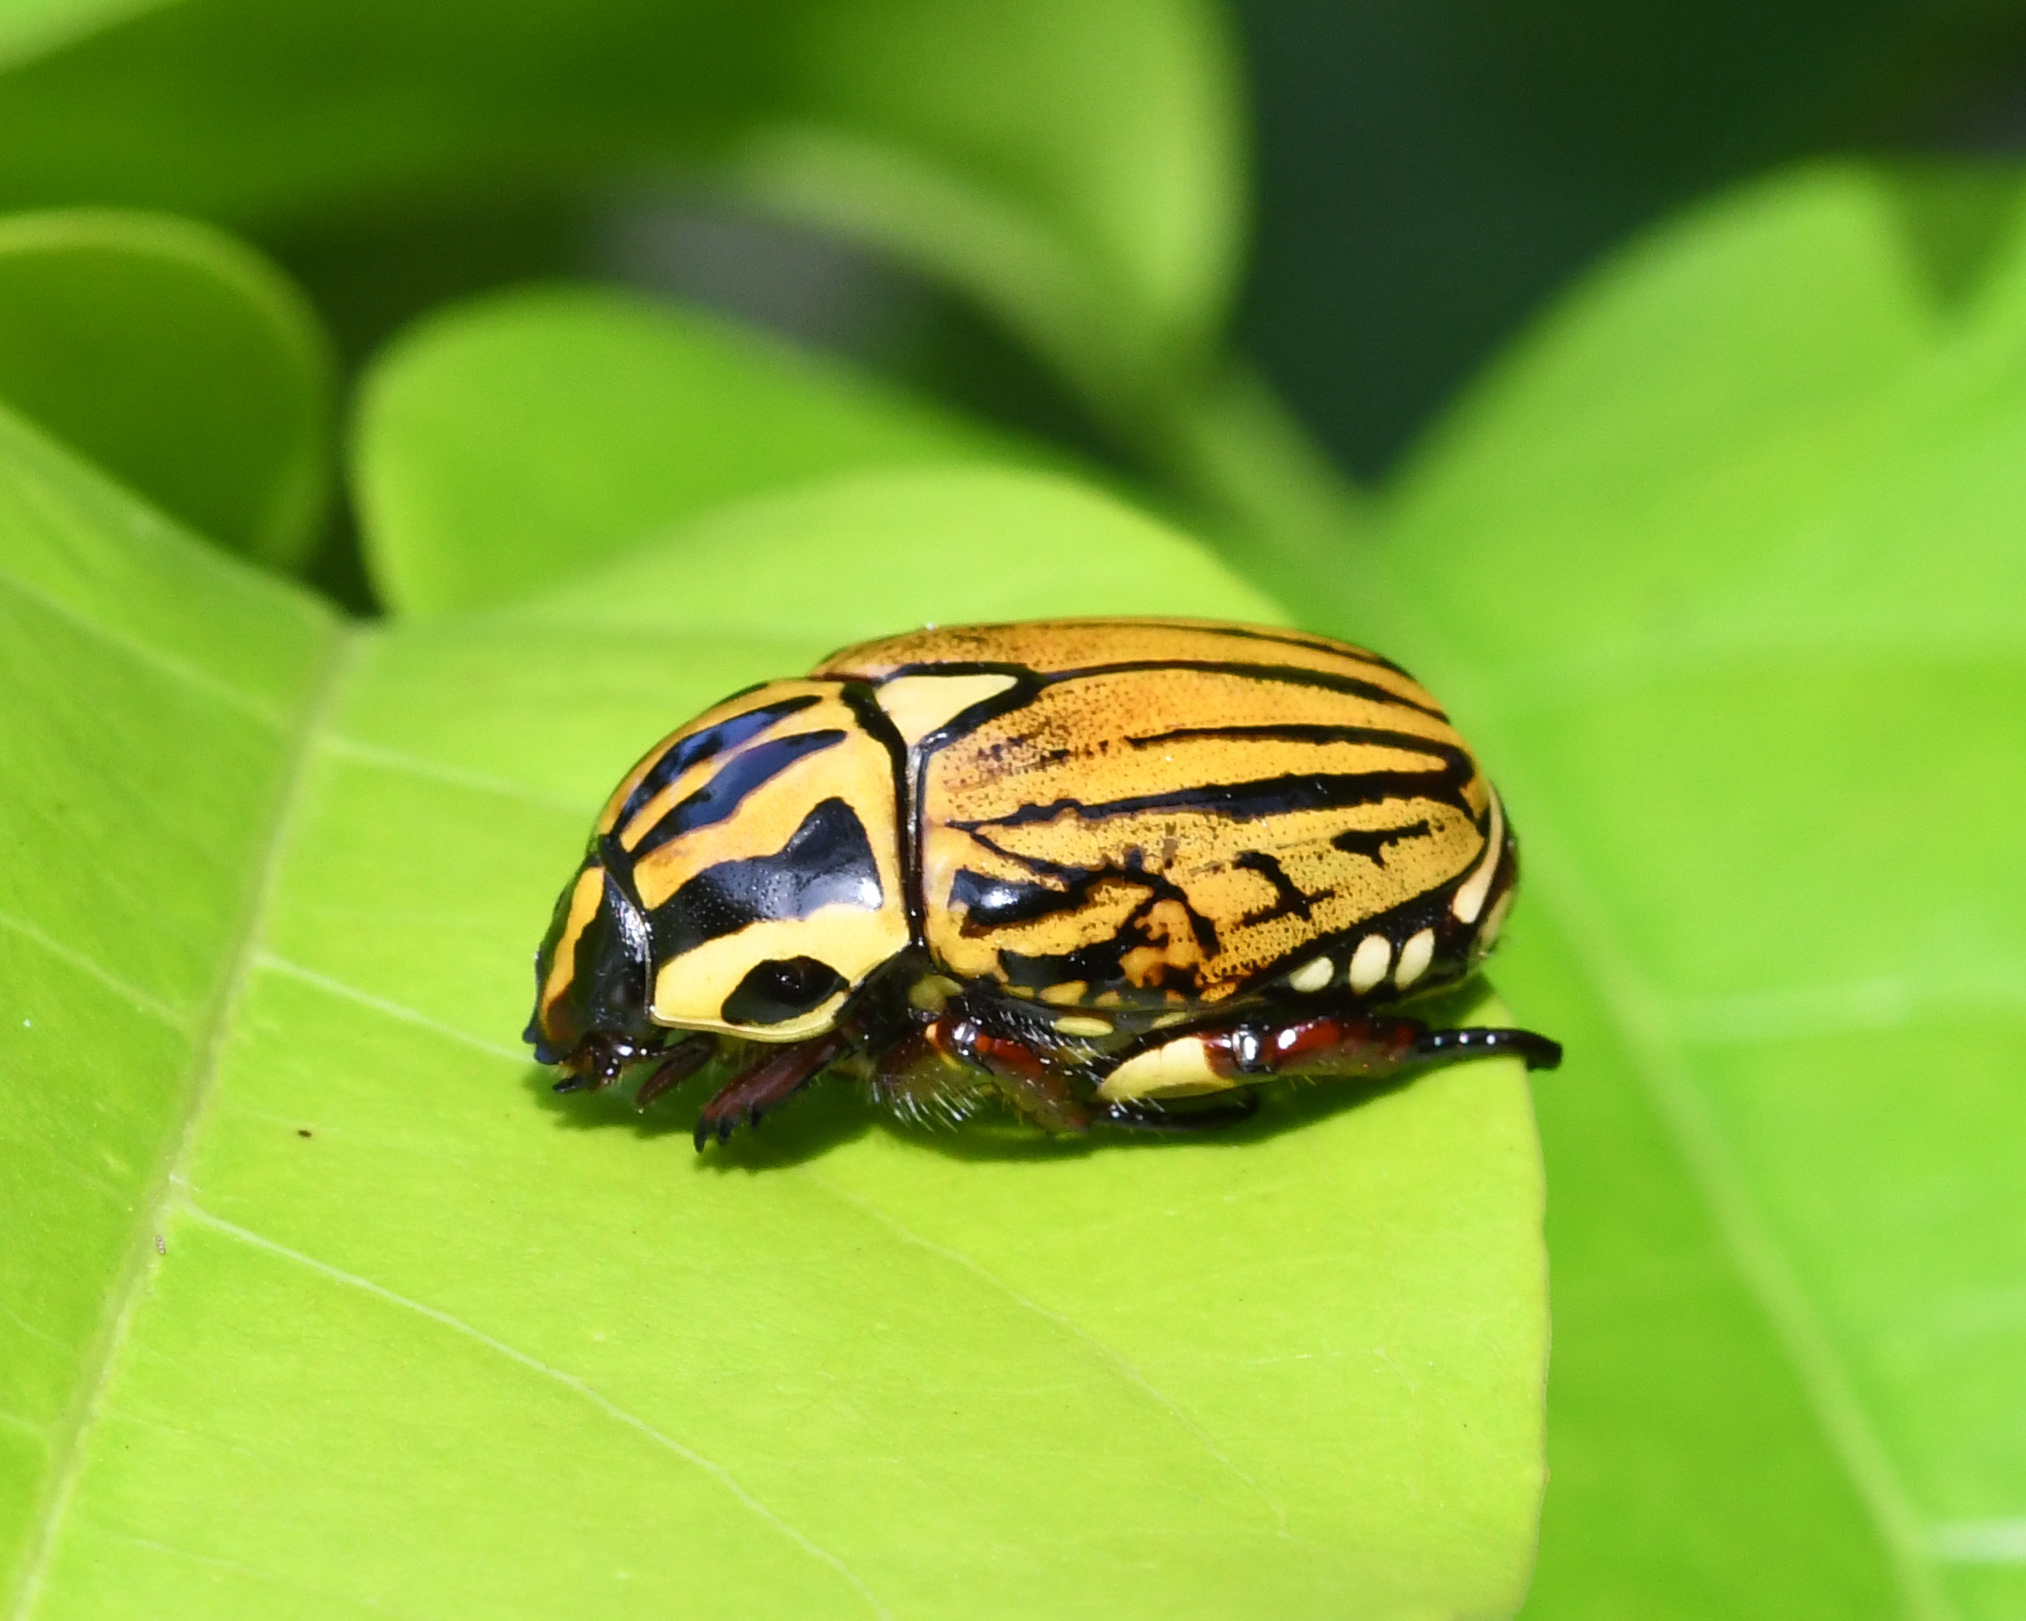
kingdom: Animalia
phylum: Arthropoda
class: Insecta
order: Coleoptera
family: Scarabaeidae
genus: Rutela
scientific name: Rutela dorcyi
